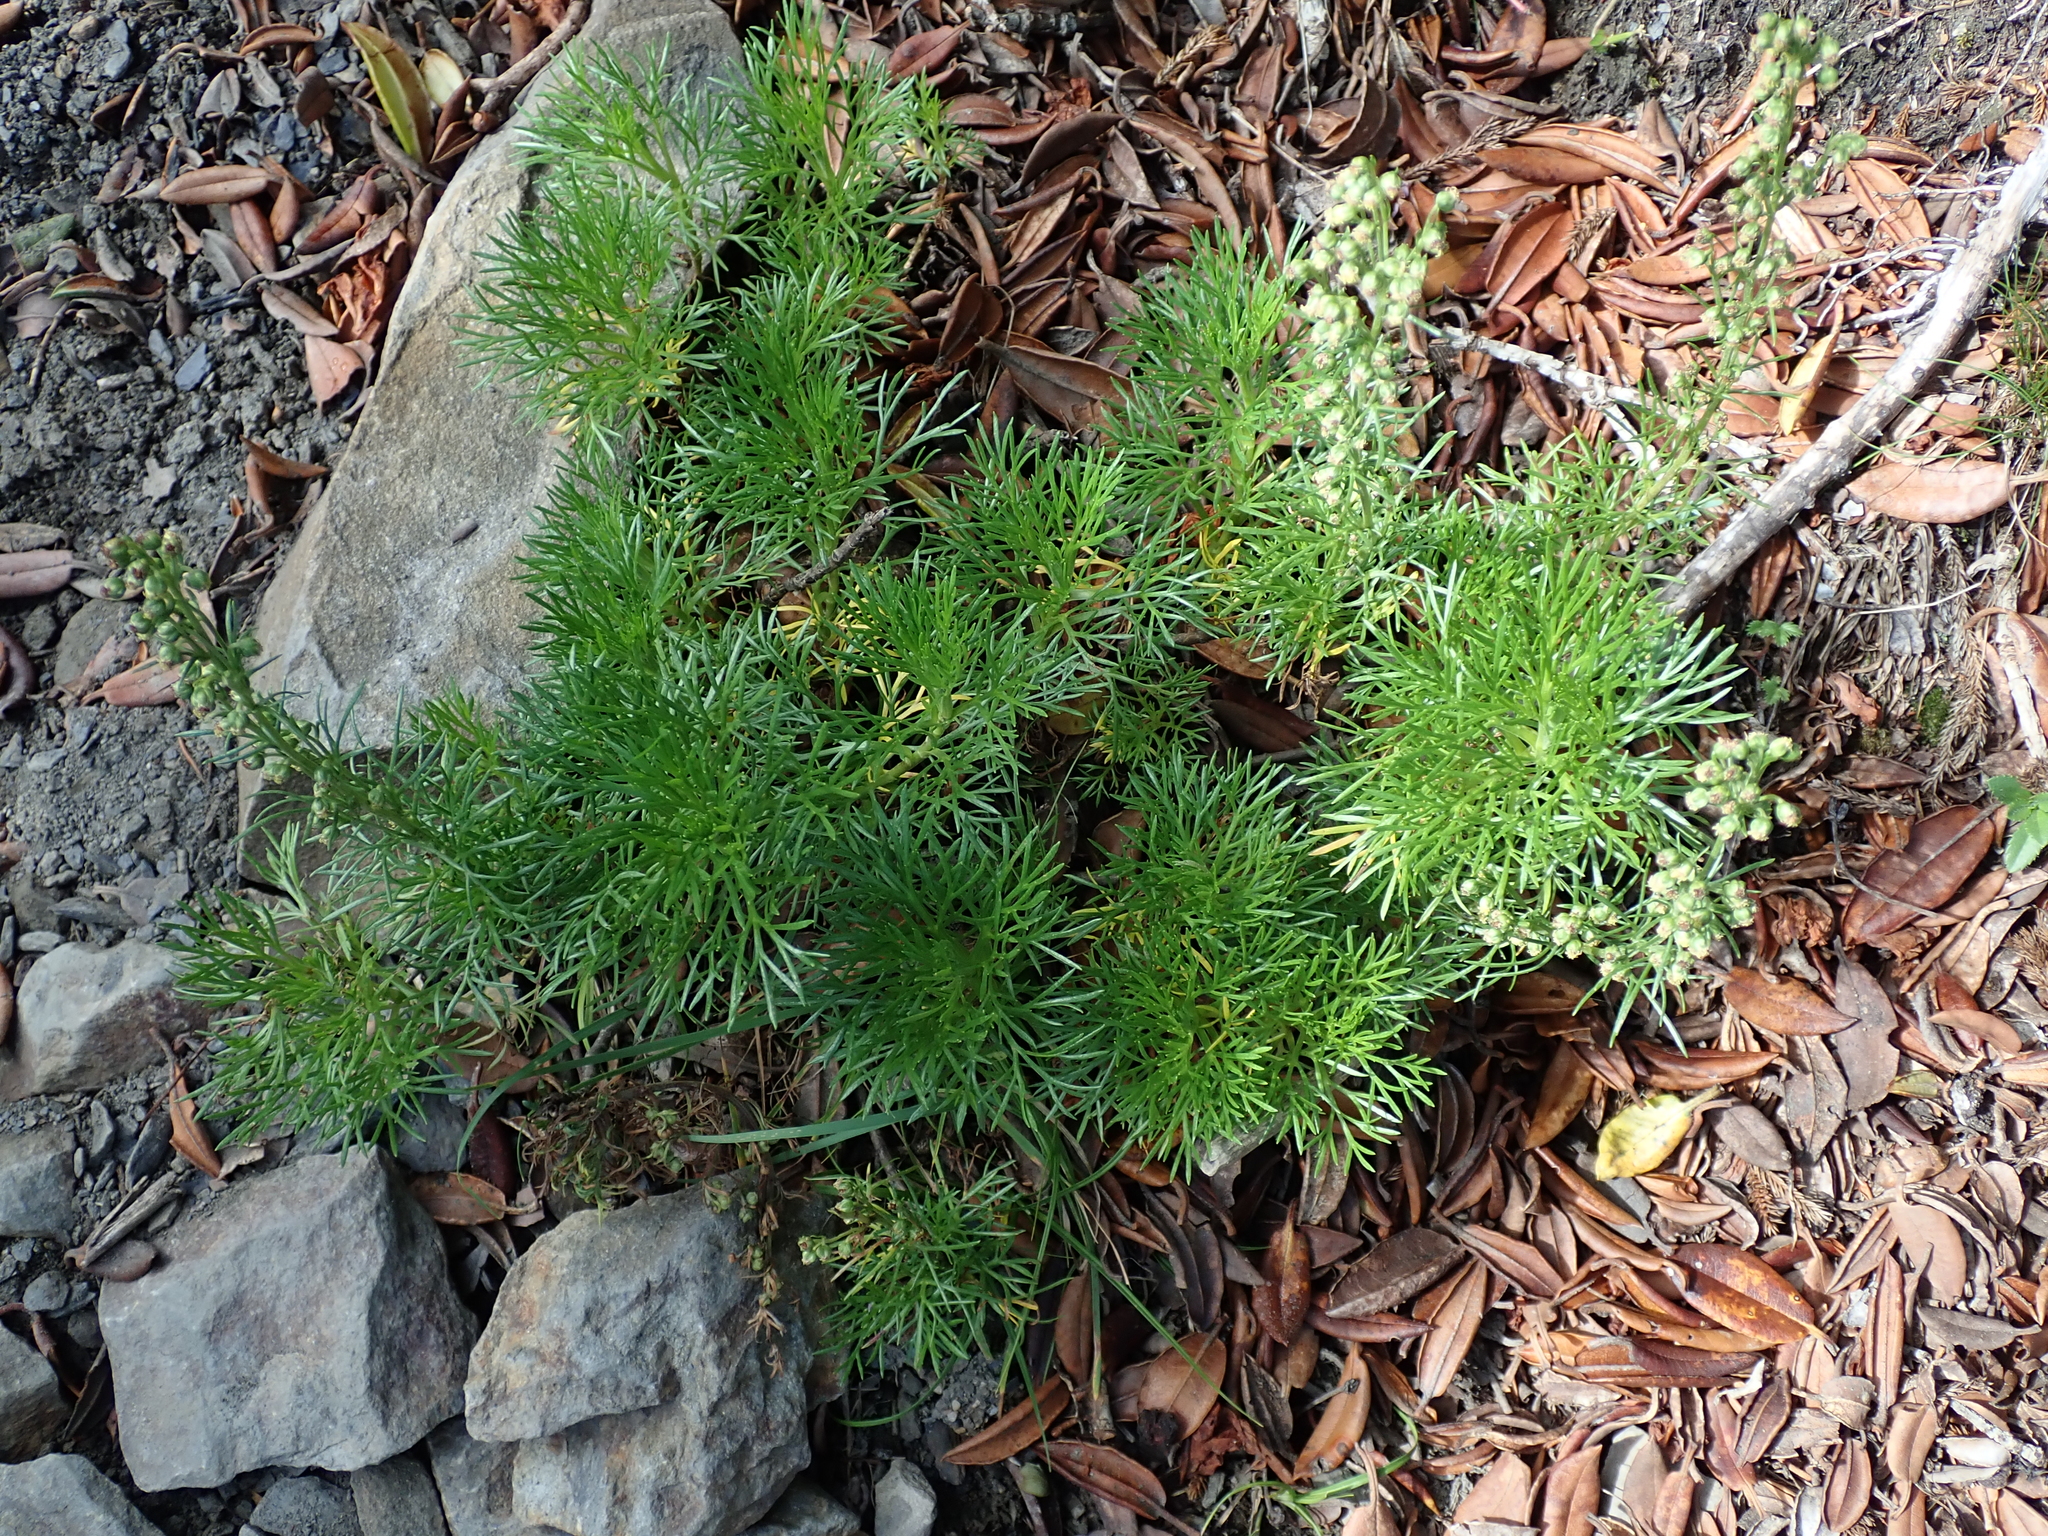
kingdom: Plantae
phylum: Tracheophyta
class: Magnoliopsida
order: Asterales
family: Asteraceae
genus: Artemisia
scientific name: Artemisia morrisonensis
